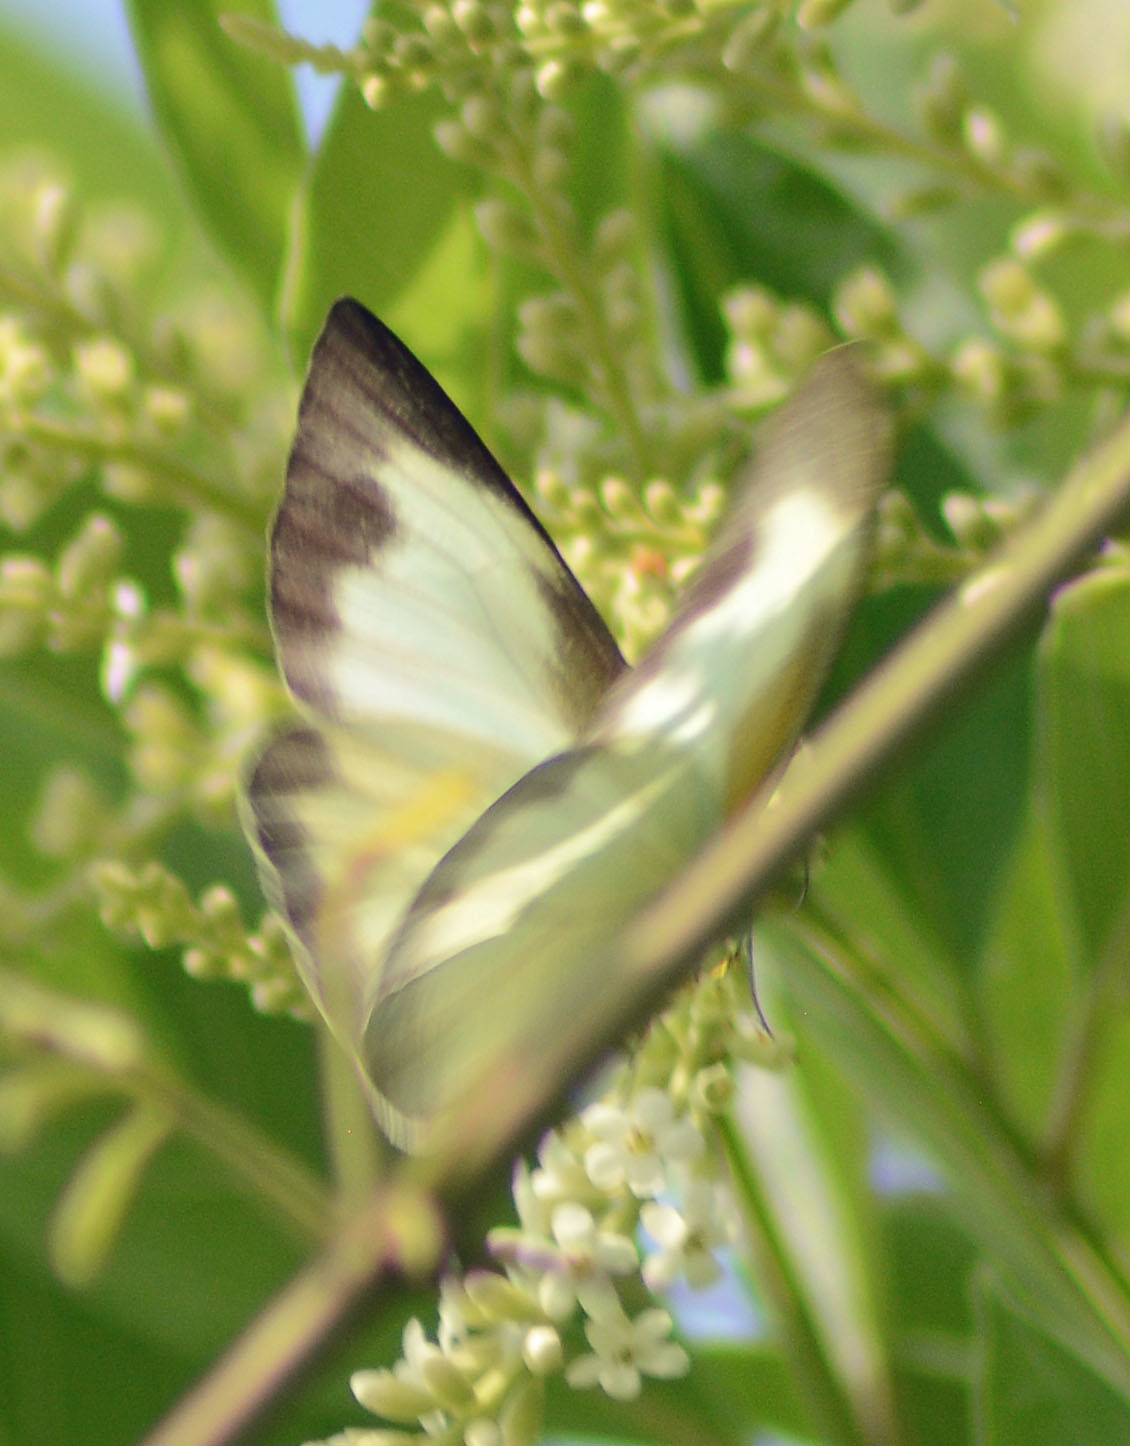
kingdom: Animalia
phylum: Arthropoda
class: Insecta
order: Lepidoptera
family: Pieridae
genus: Glutophrissa
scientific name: Glutophrissa drusilla
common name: Florida white
